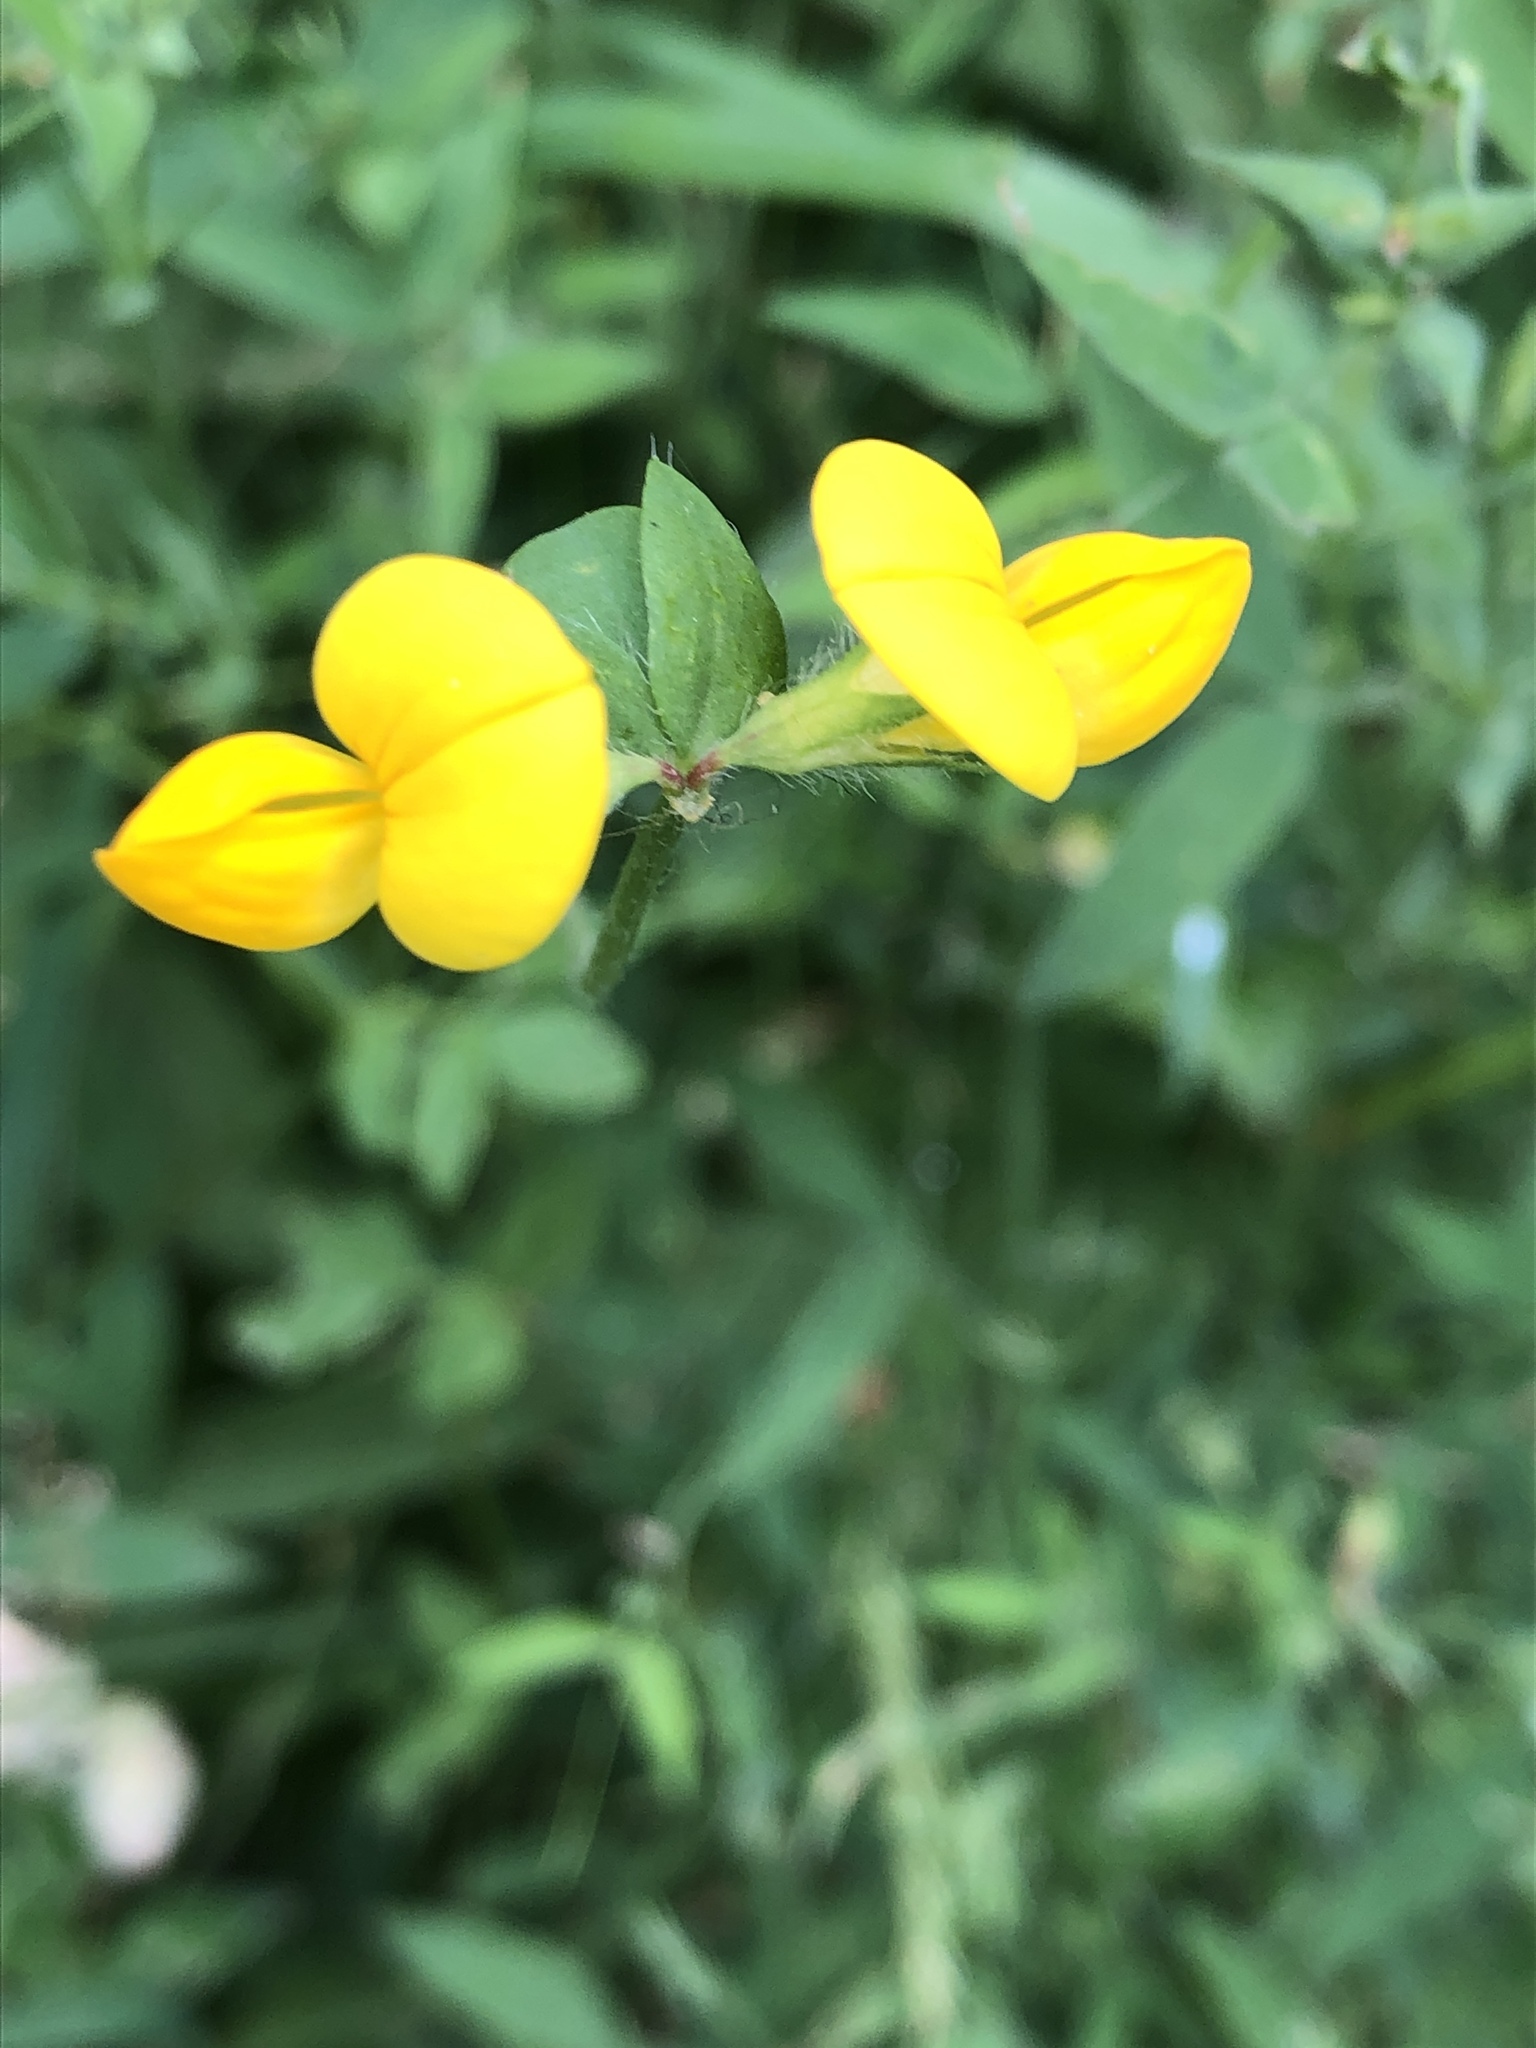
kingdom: Plantae
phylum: Tracheophyta
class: Magnoliopsida
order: Fabales
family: Fabaceae
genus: Lotus
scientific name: Lotus corniculatus
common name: Common bird's-foot-trefoil
